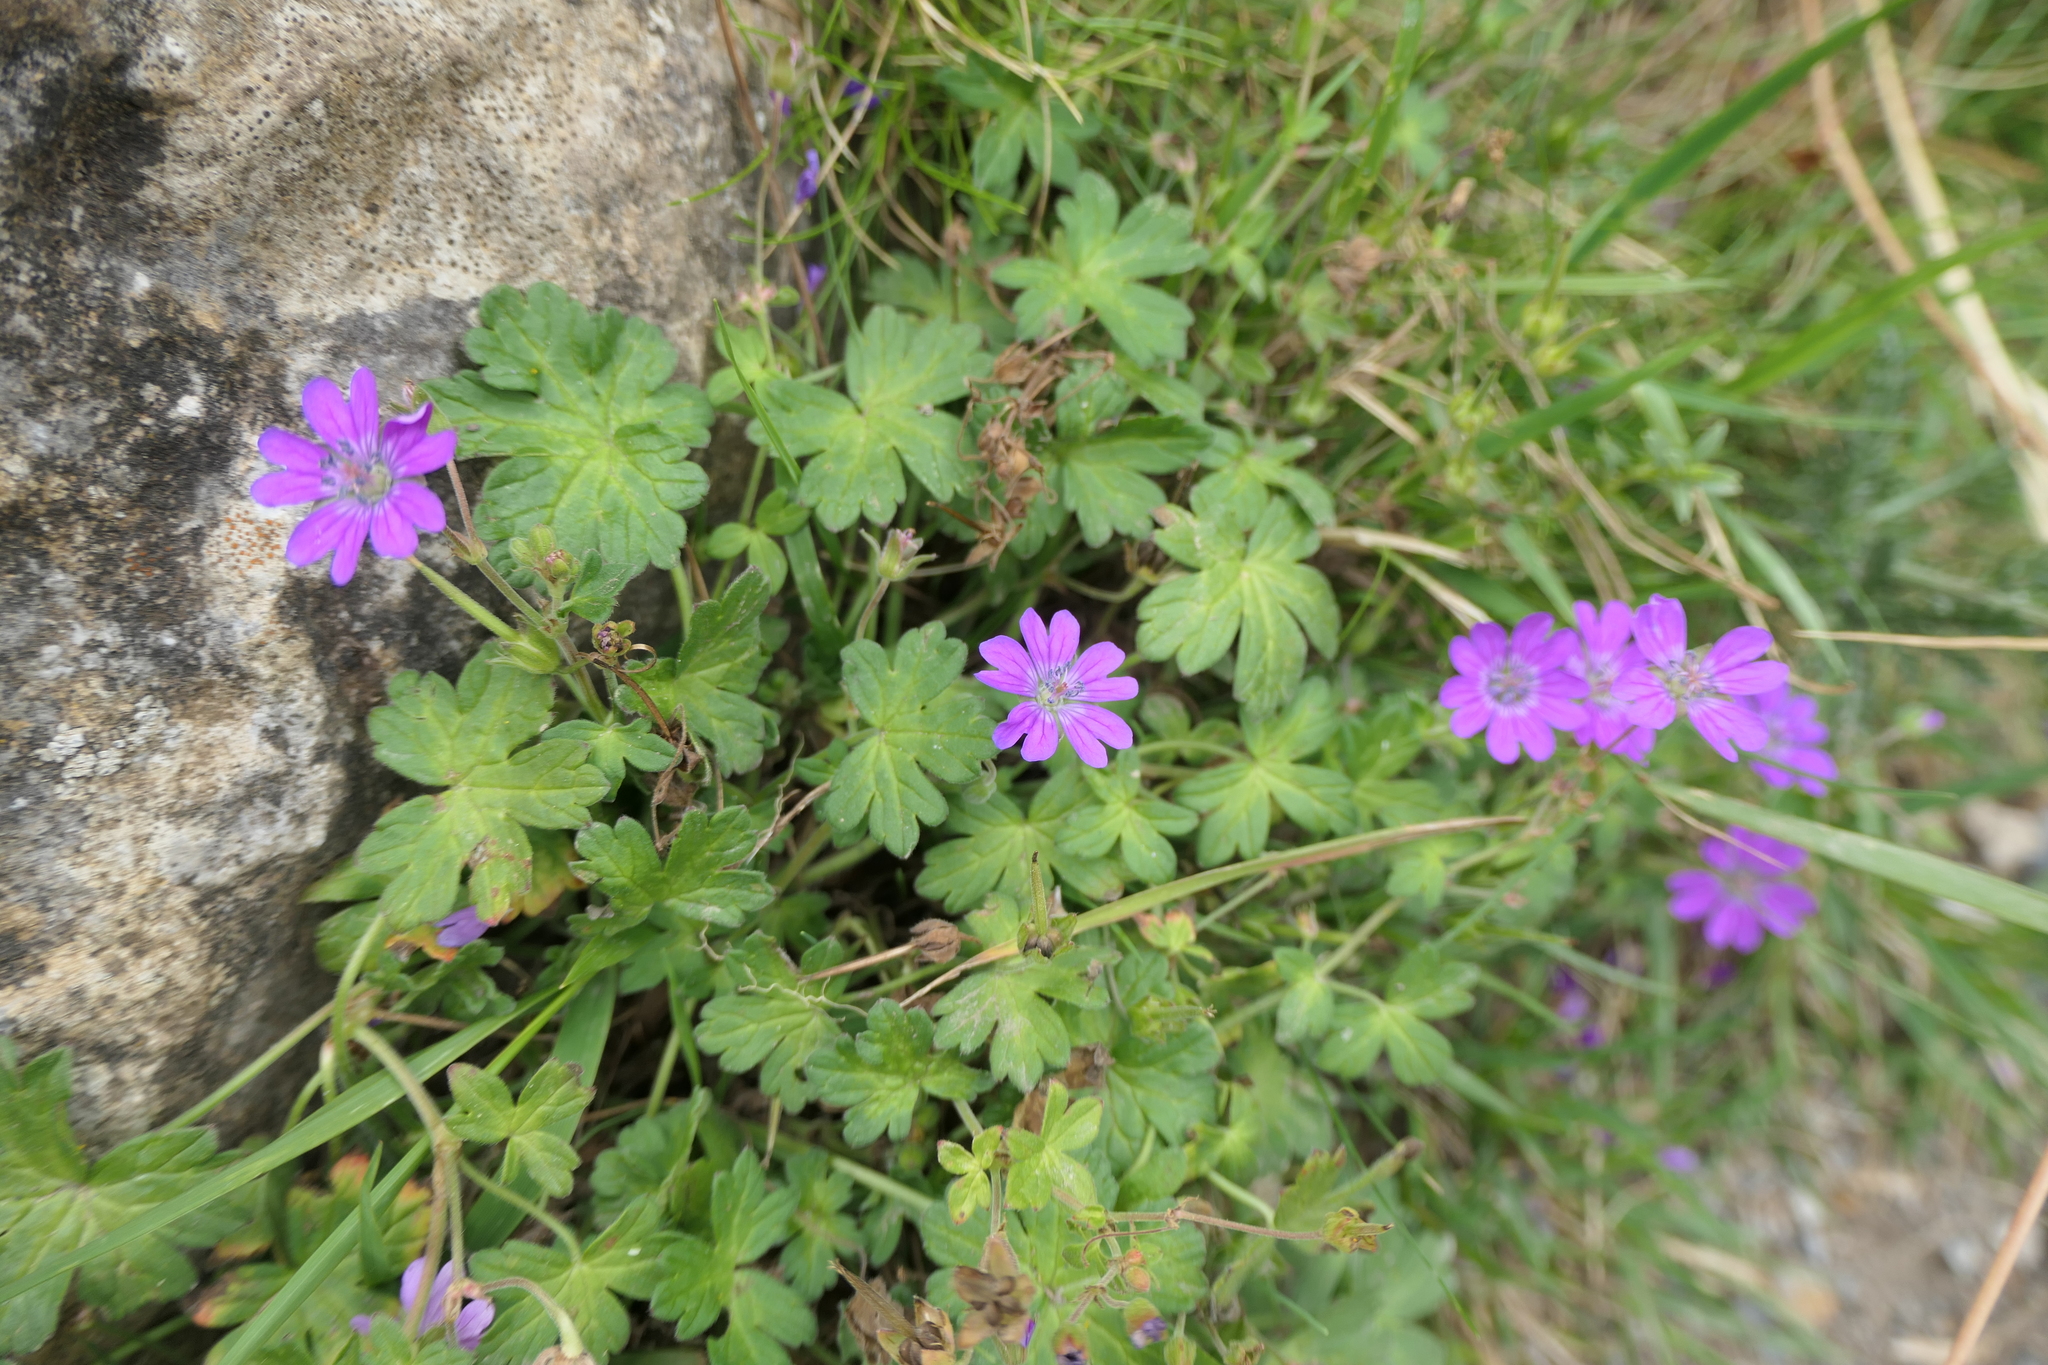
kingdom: Plantae
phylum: Tracheophyta
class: Magnoliopsida
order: Geraniales
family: Geraniaceae
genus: Geranium
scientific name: Geranium pyrenaicum
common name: Hedgerow crane's-bill
